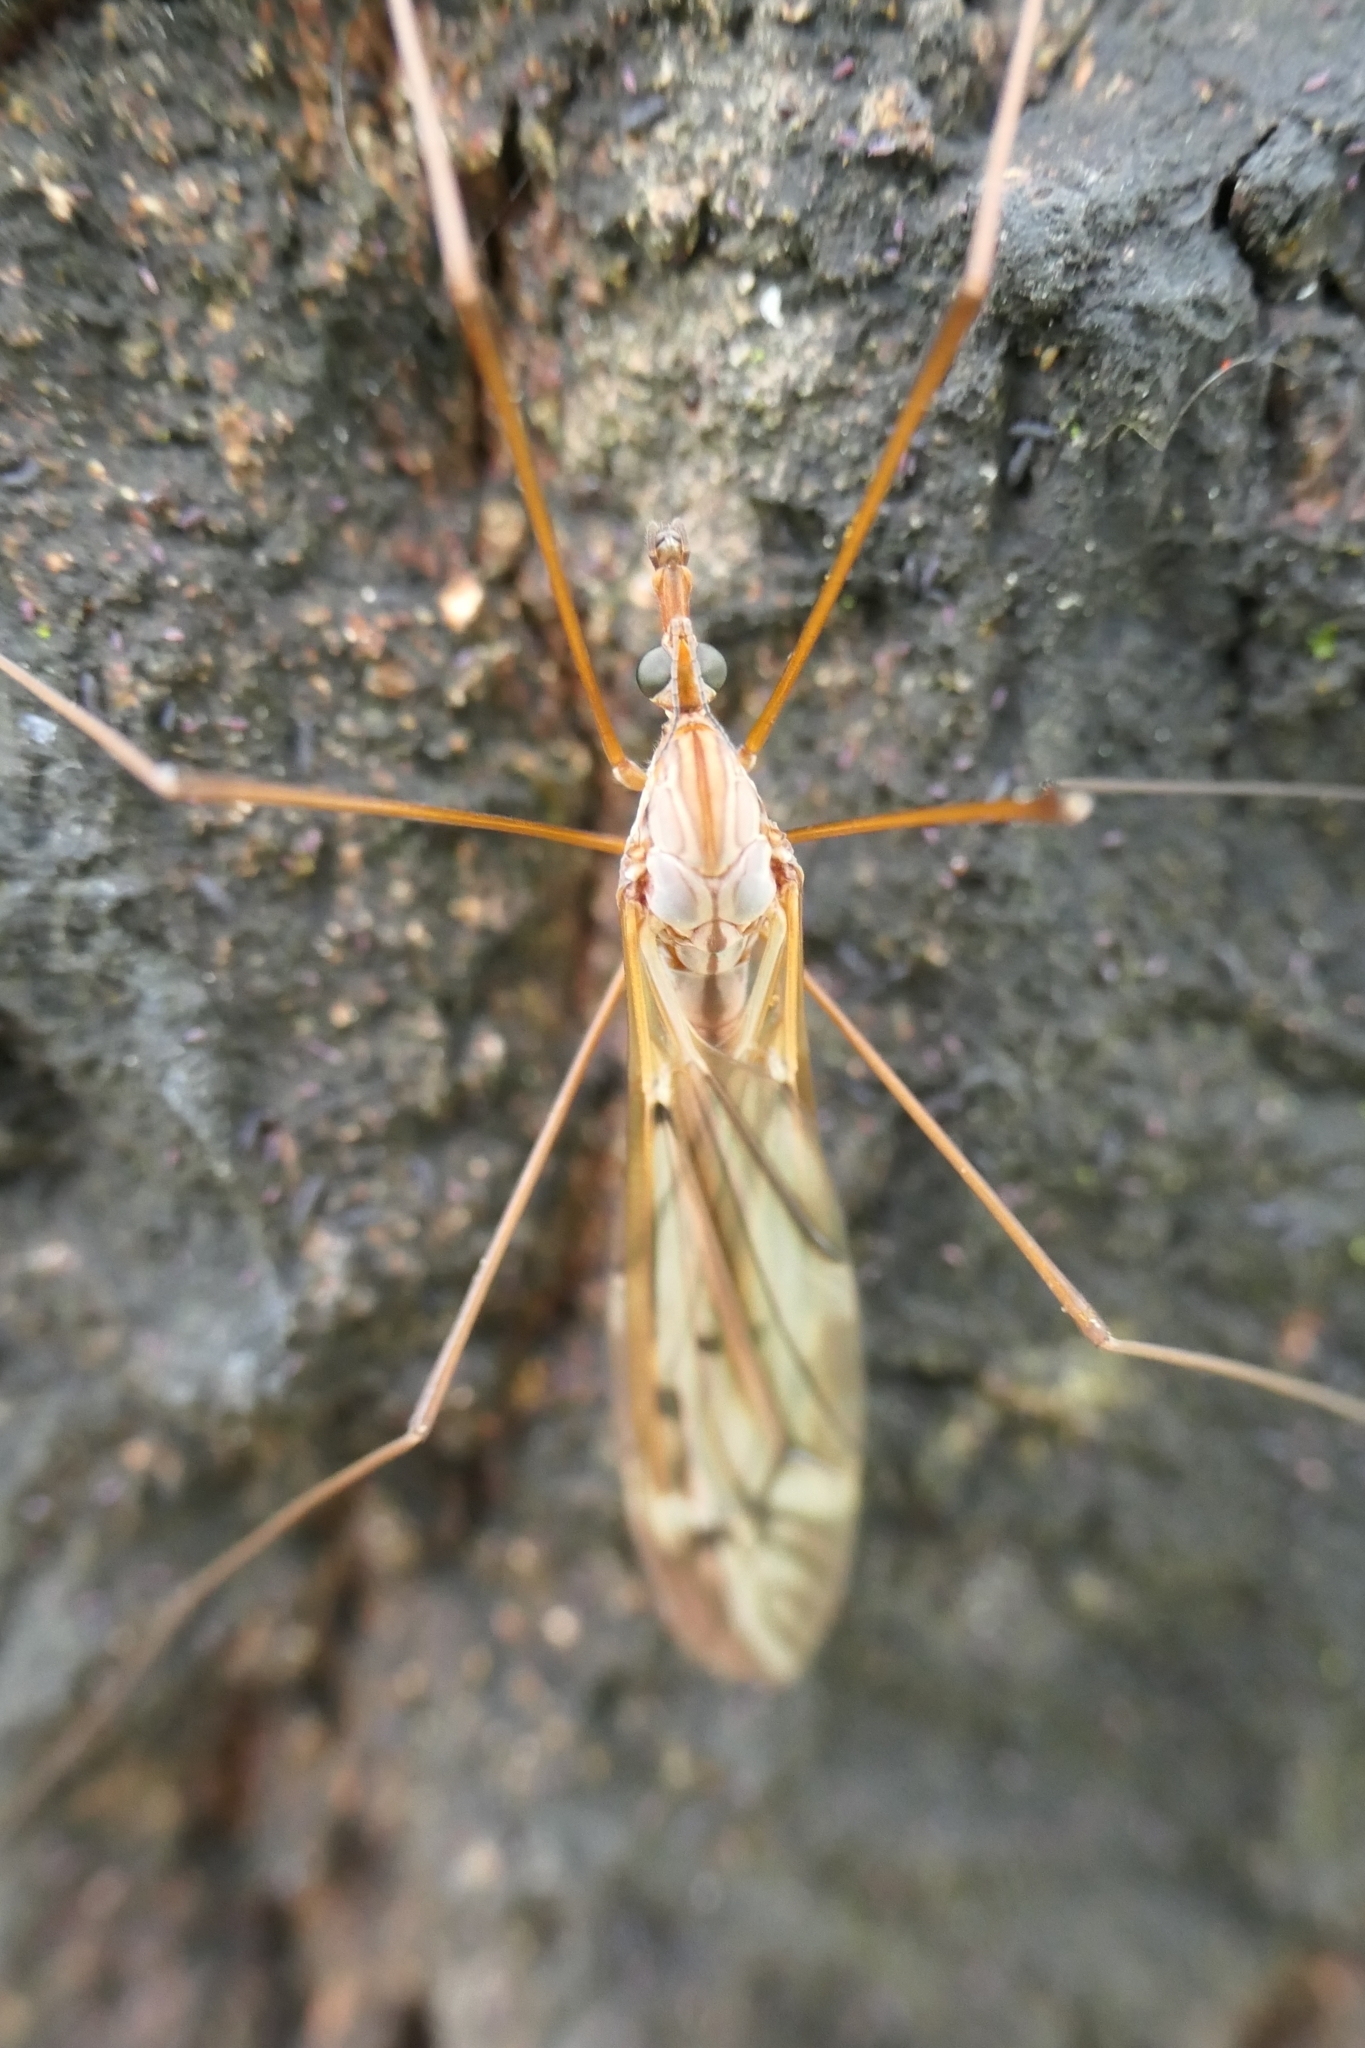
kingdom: Animalia
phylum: Arthropoda
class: Insecta
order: Diptera
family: Tipulidae
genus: Zelandotipula
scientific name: Zelandotipula novarae
